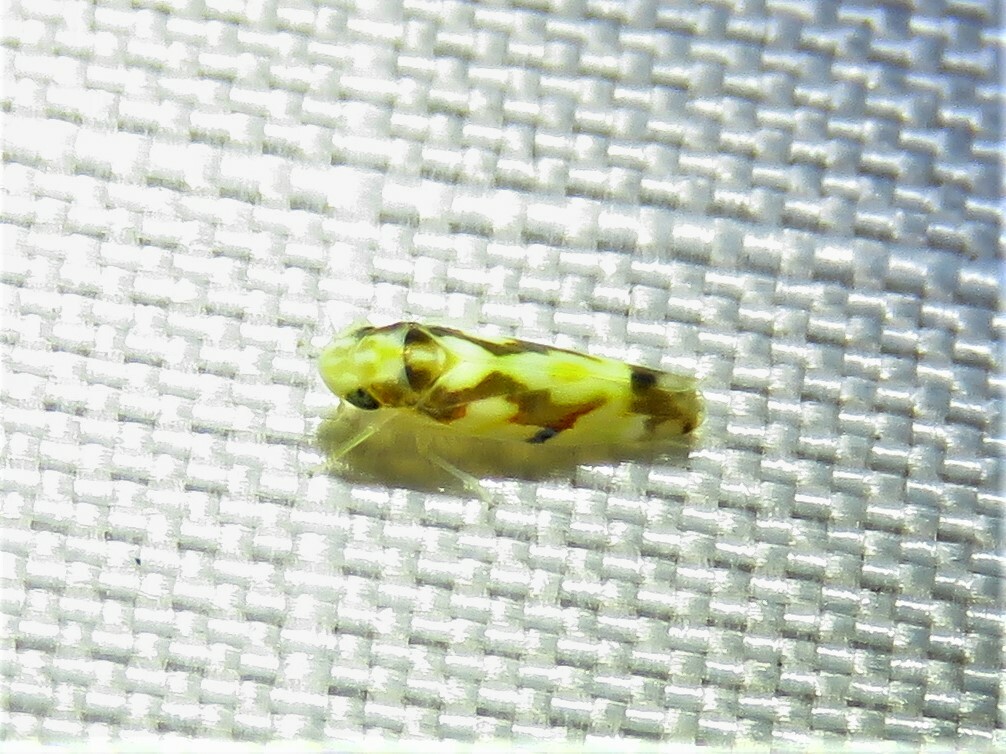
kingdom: Animalia
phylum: Arthropoda
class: Insecta
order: Hemiptera
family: Cicadellidae
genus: Erythroneura
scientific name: Erythroneura ziczac
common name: Virginia creeper leafhopper
